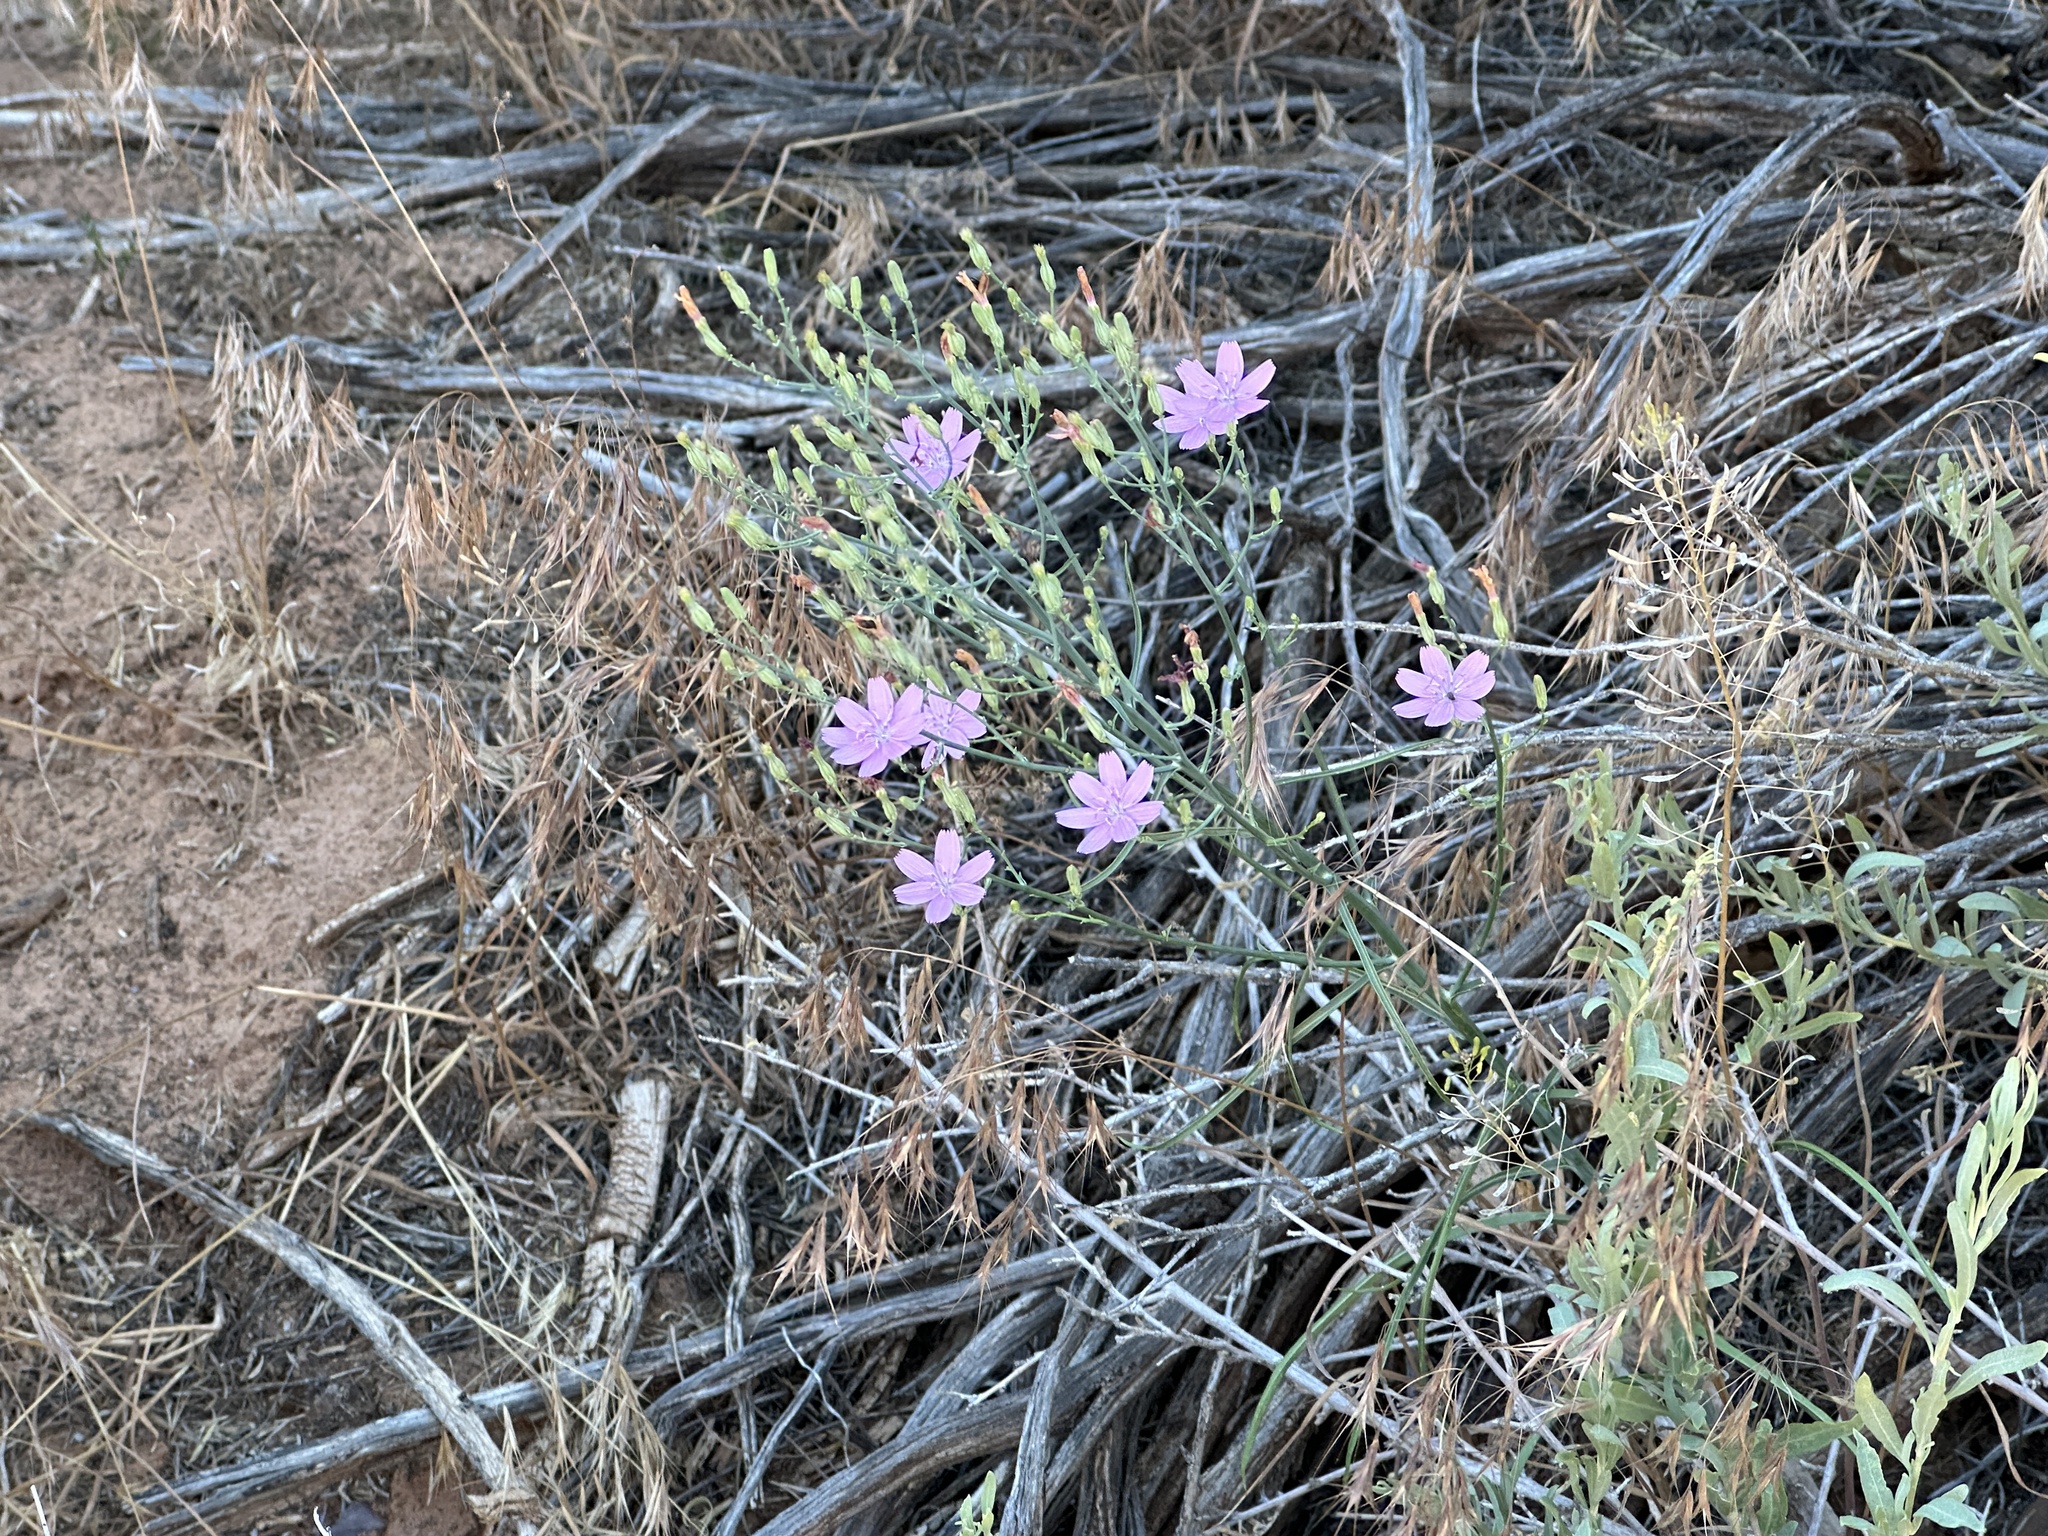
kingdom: Plantae
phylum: Tracheophyta
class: Magnoliopsida
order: Asterales
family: Asteraceae
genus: Stephanomeria
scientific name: Stephanomeria exigua
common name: Small wirelettuce
